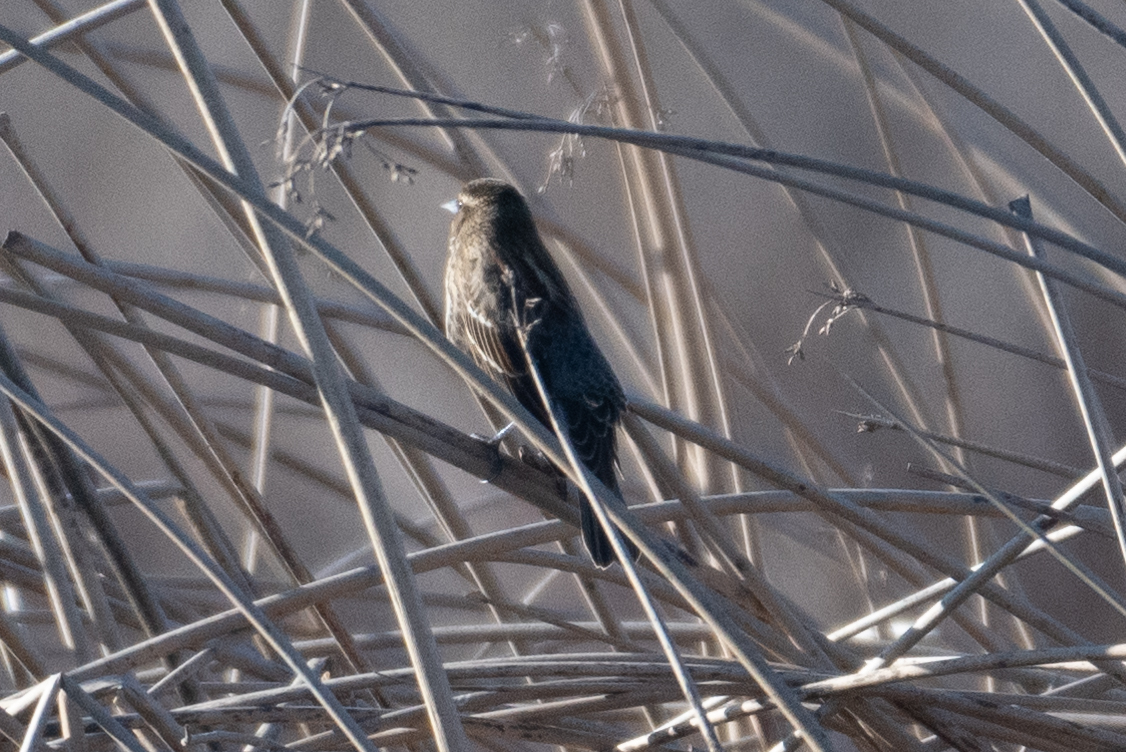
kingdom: Animalia
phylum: Chordata
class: Aves
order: Passeriformes
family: Icteridae
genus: Agelaius
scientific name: Agelaius phoeniceus
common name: Red-winged blackbird
